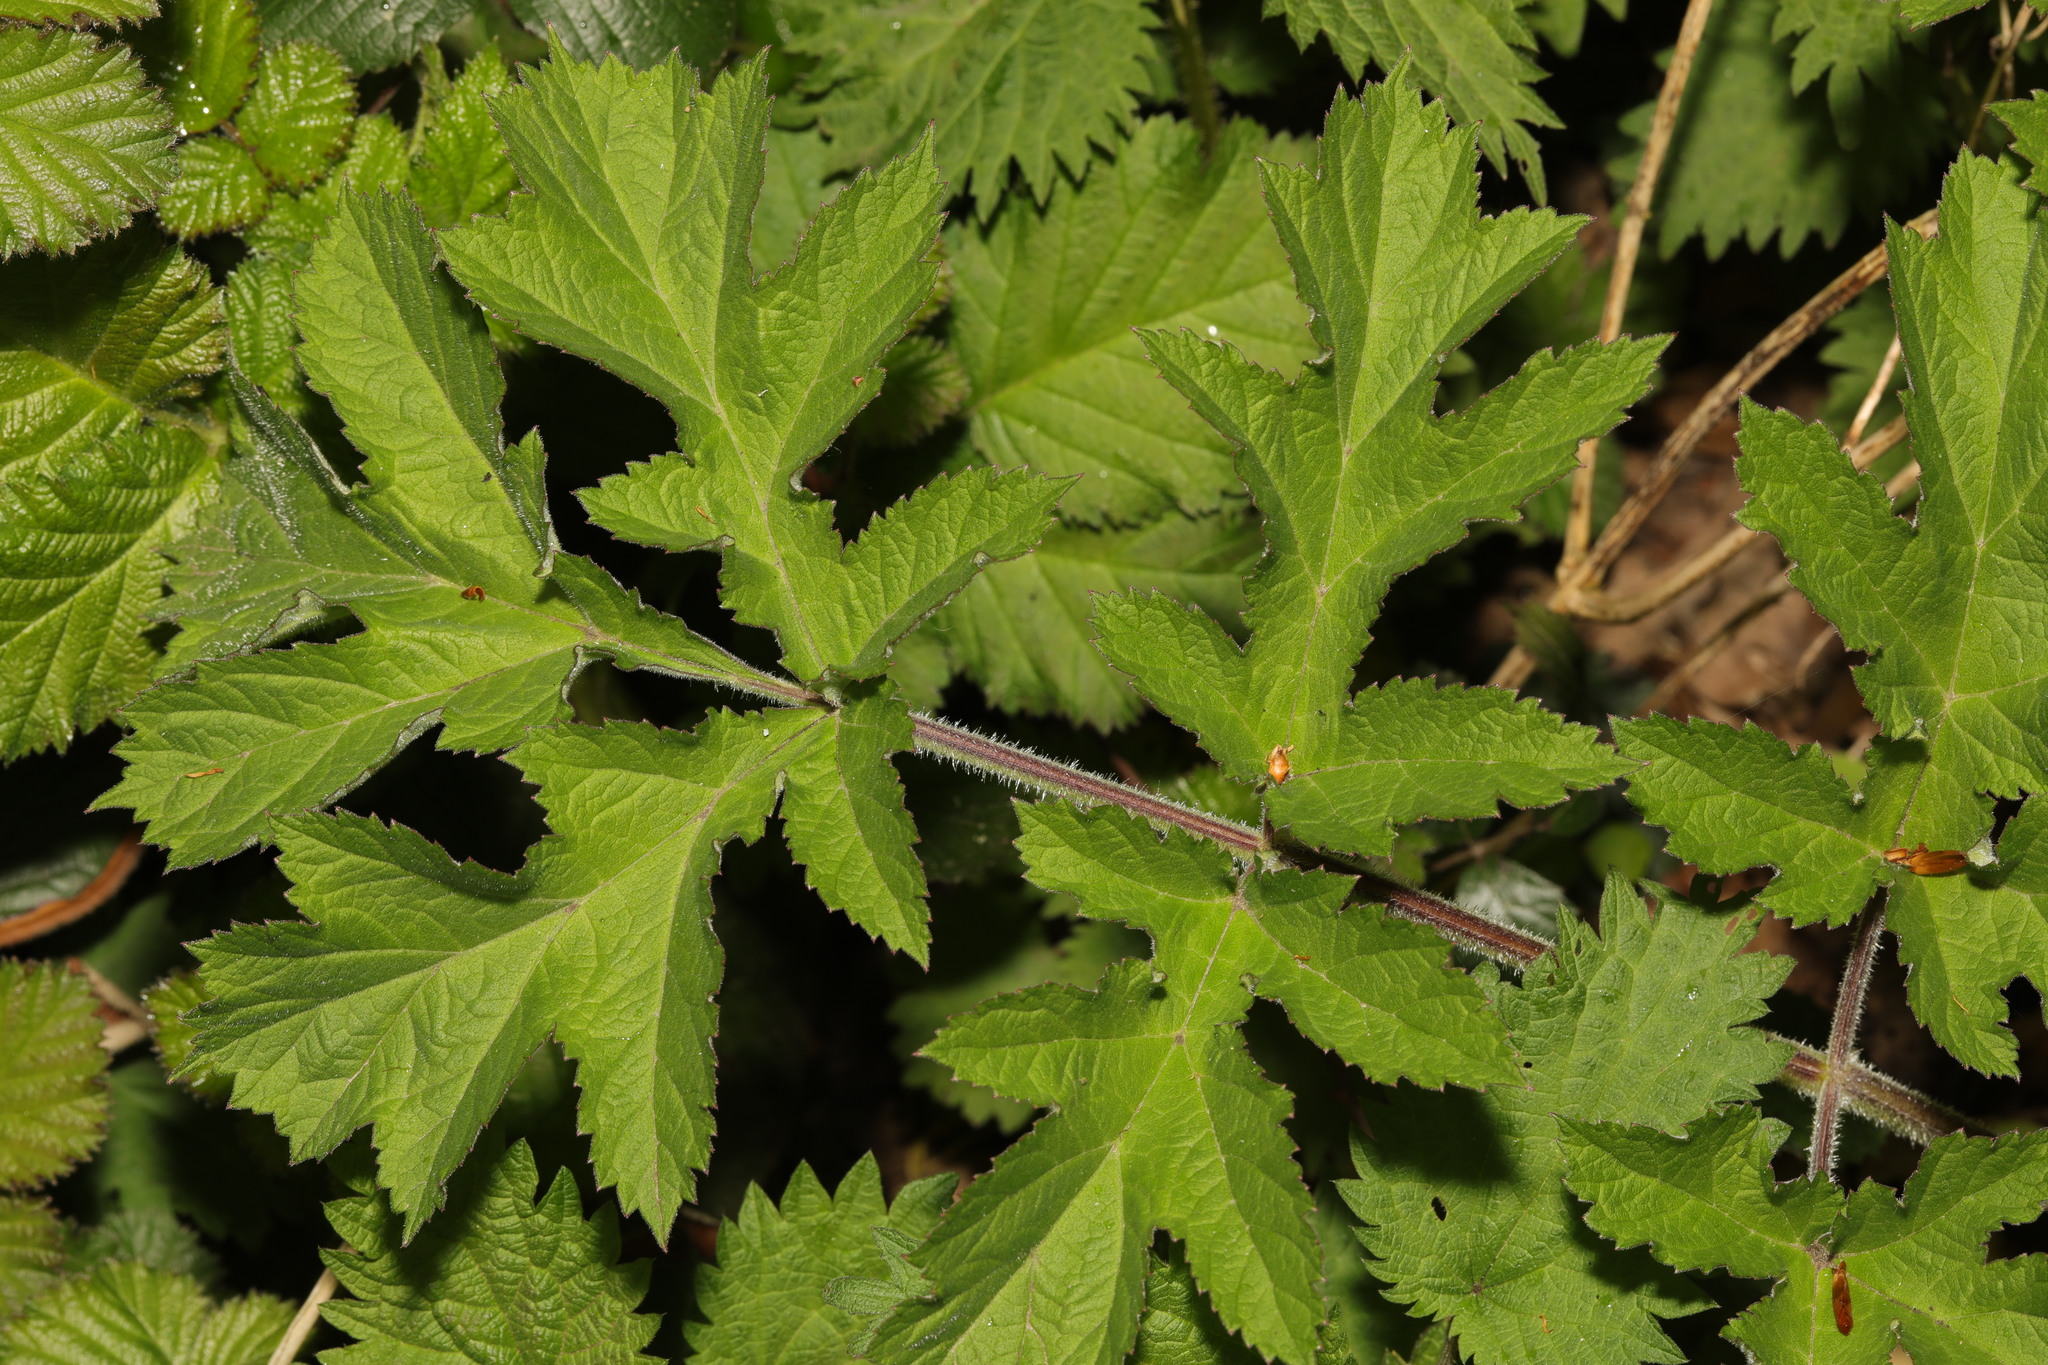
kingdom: Plantae
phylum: Tracheophyta
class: Magnoliopsida
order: Apiales
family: Apiaceae
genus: Heracleum
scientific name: Heracleum sphondylium
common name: Hogweed
